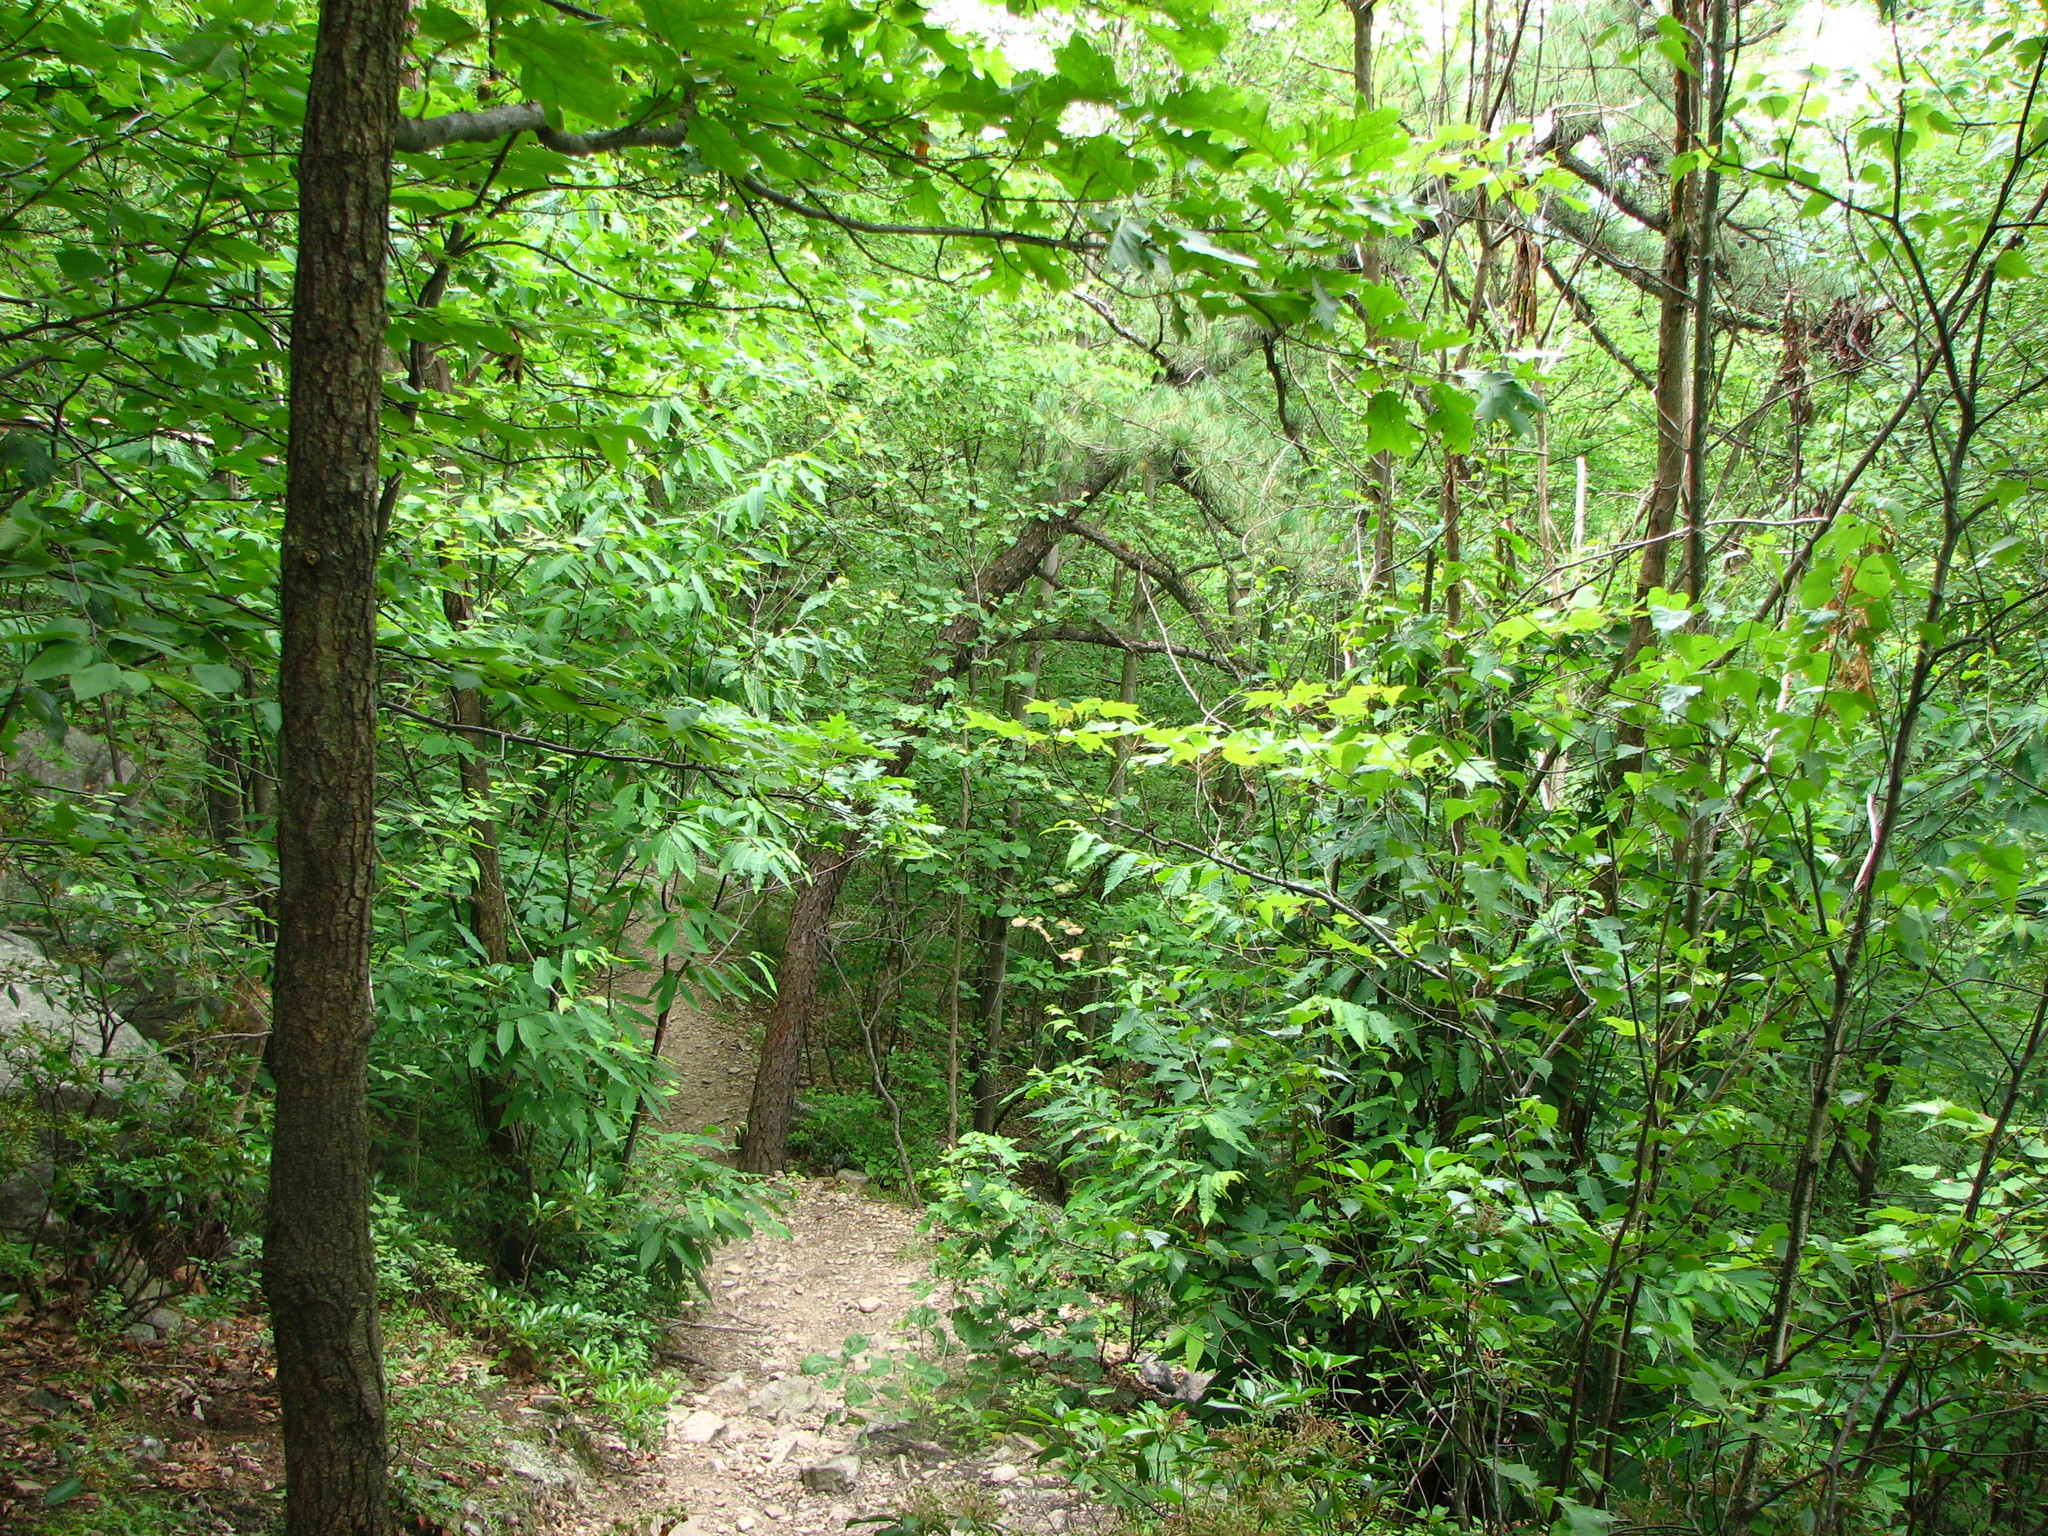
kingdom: Plantae
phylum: Tracheophyta
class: Magnoliopsida
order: Fagales
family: Fagaceae
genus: Castanea
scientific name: Castanea dentata
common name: American chestnut
